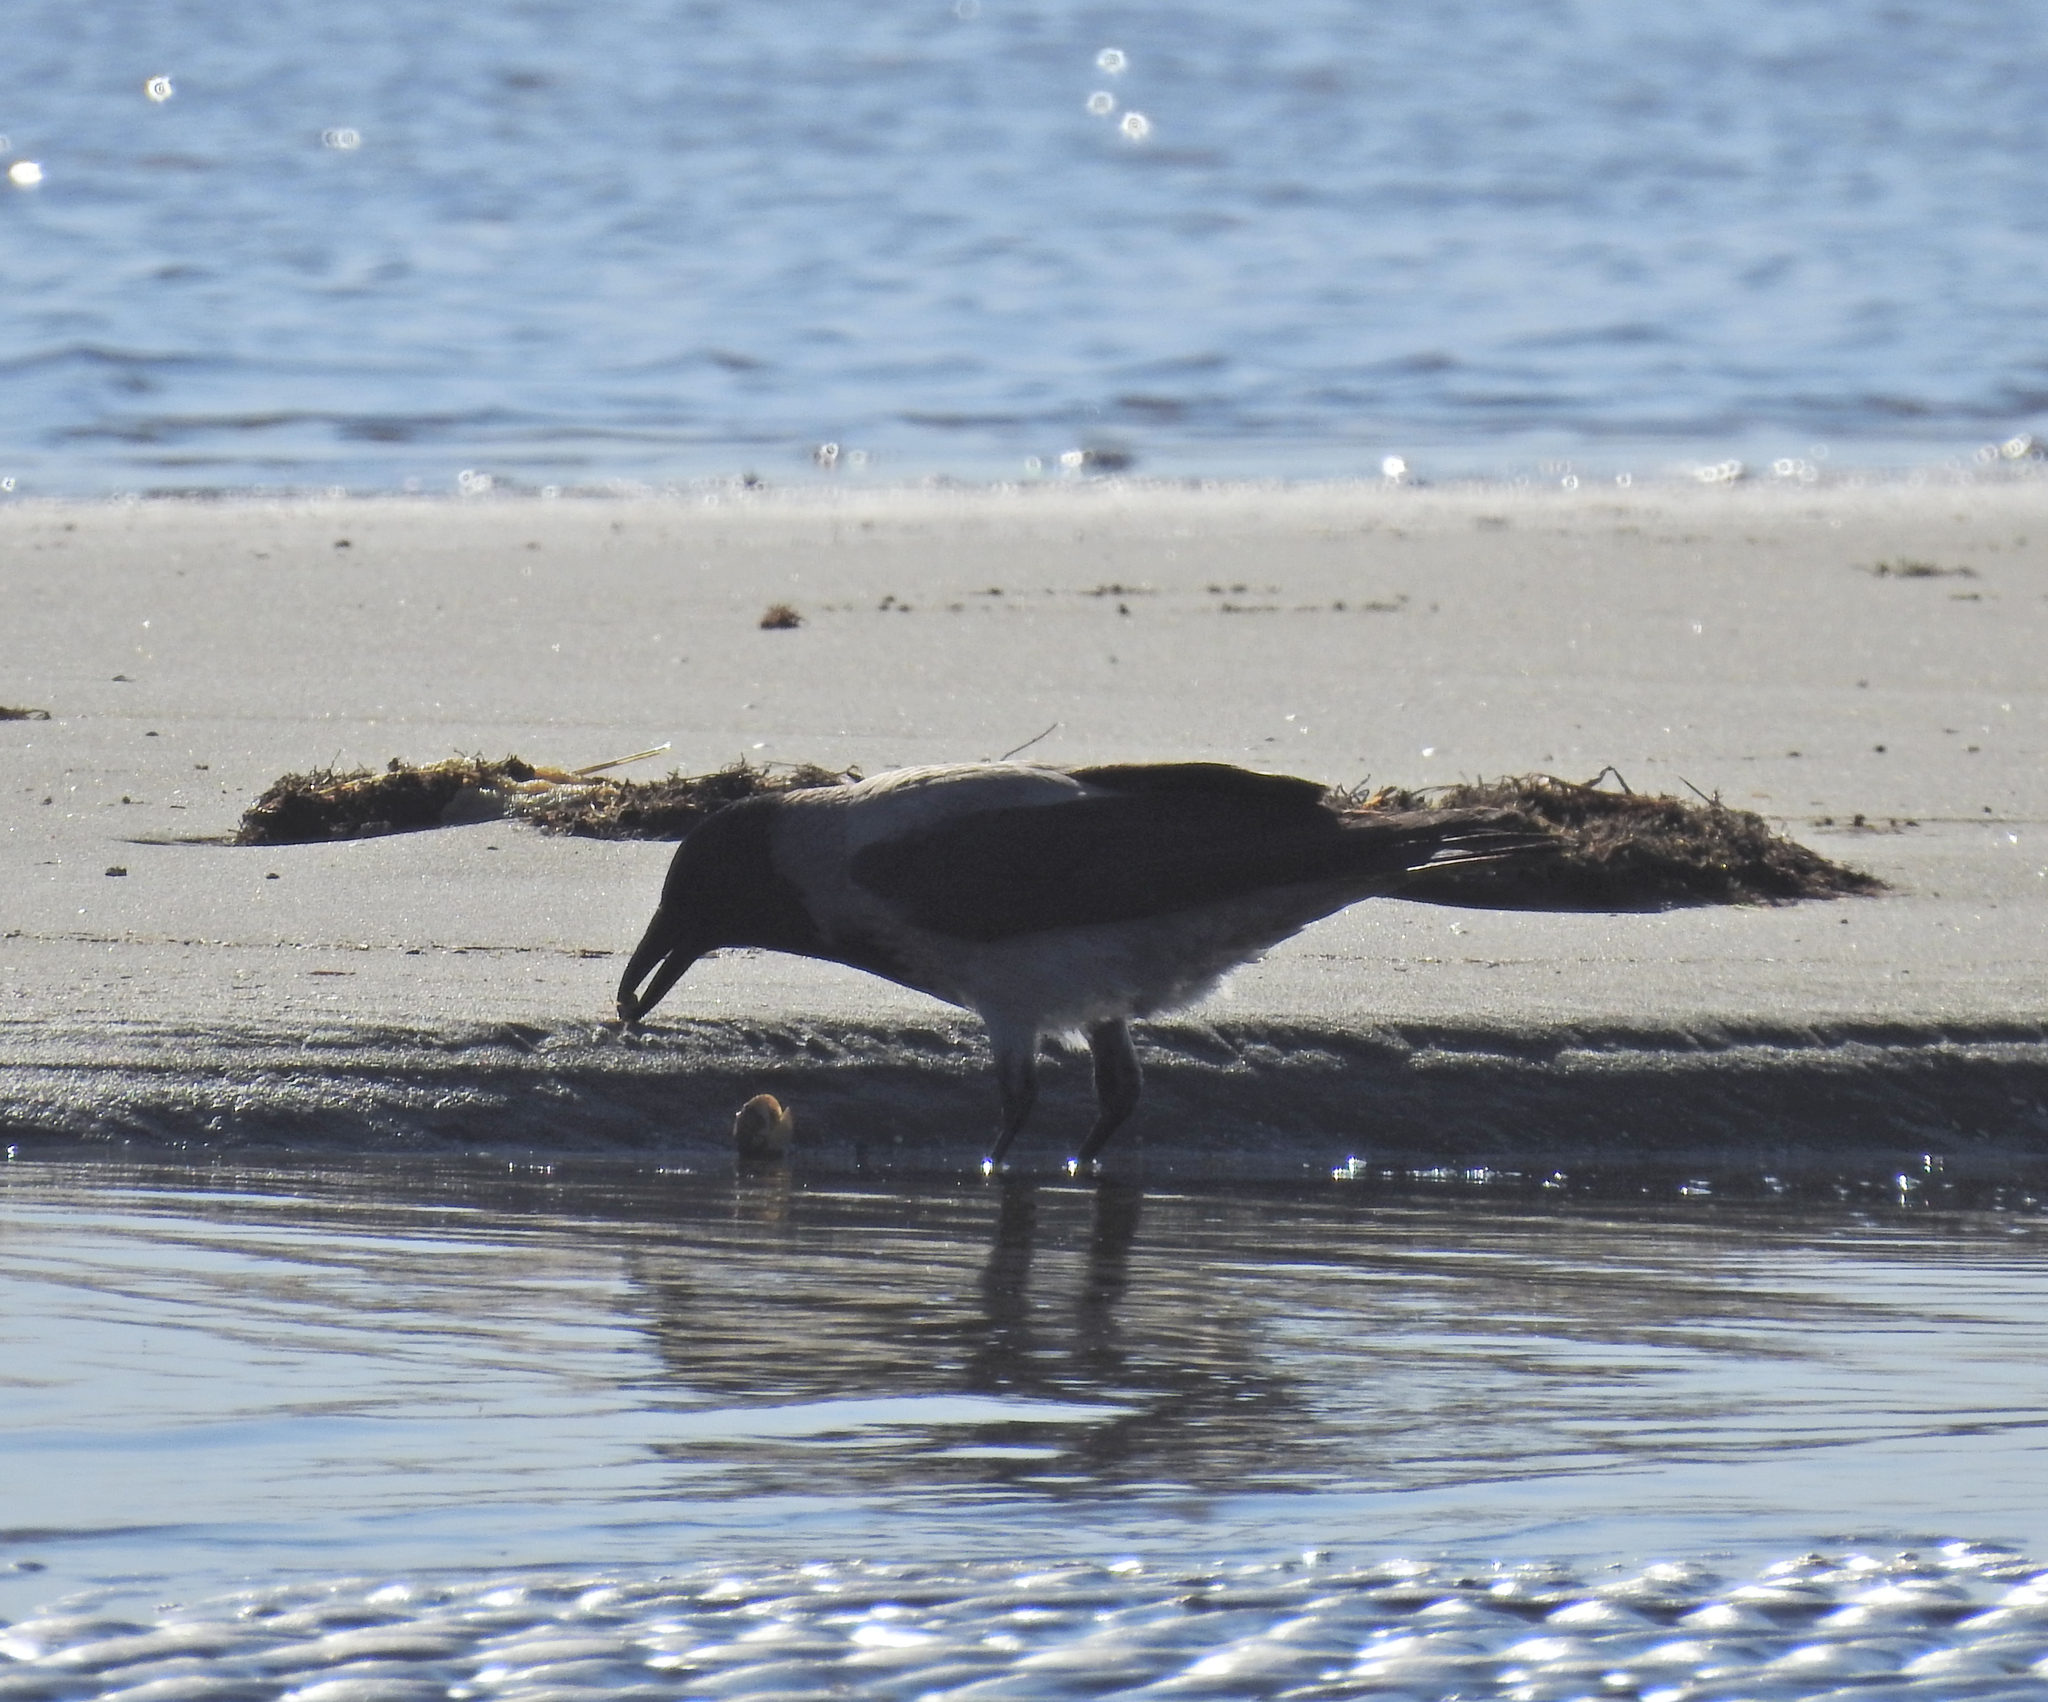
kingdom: Animalia
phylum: Chordata
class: Aves
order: Passeriformes
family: Corvidae
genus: Corvus
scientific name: Corvus cornix
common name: Hooded crow
